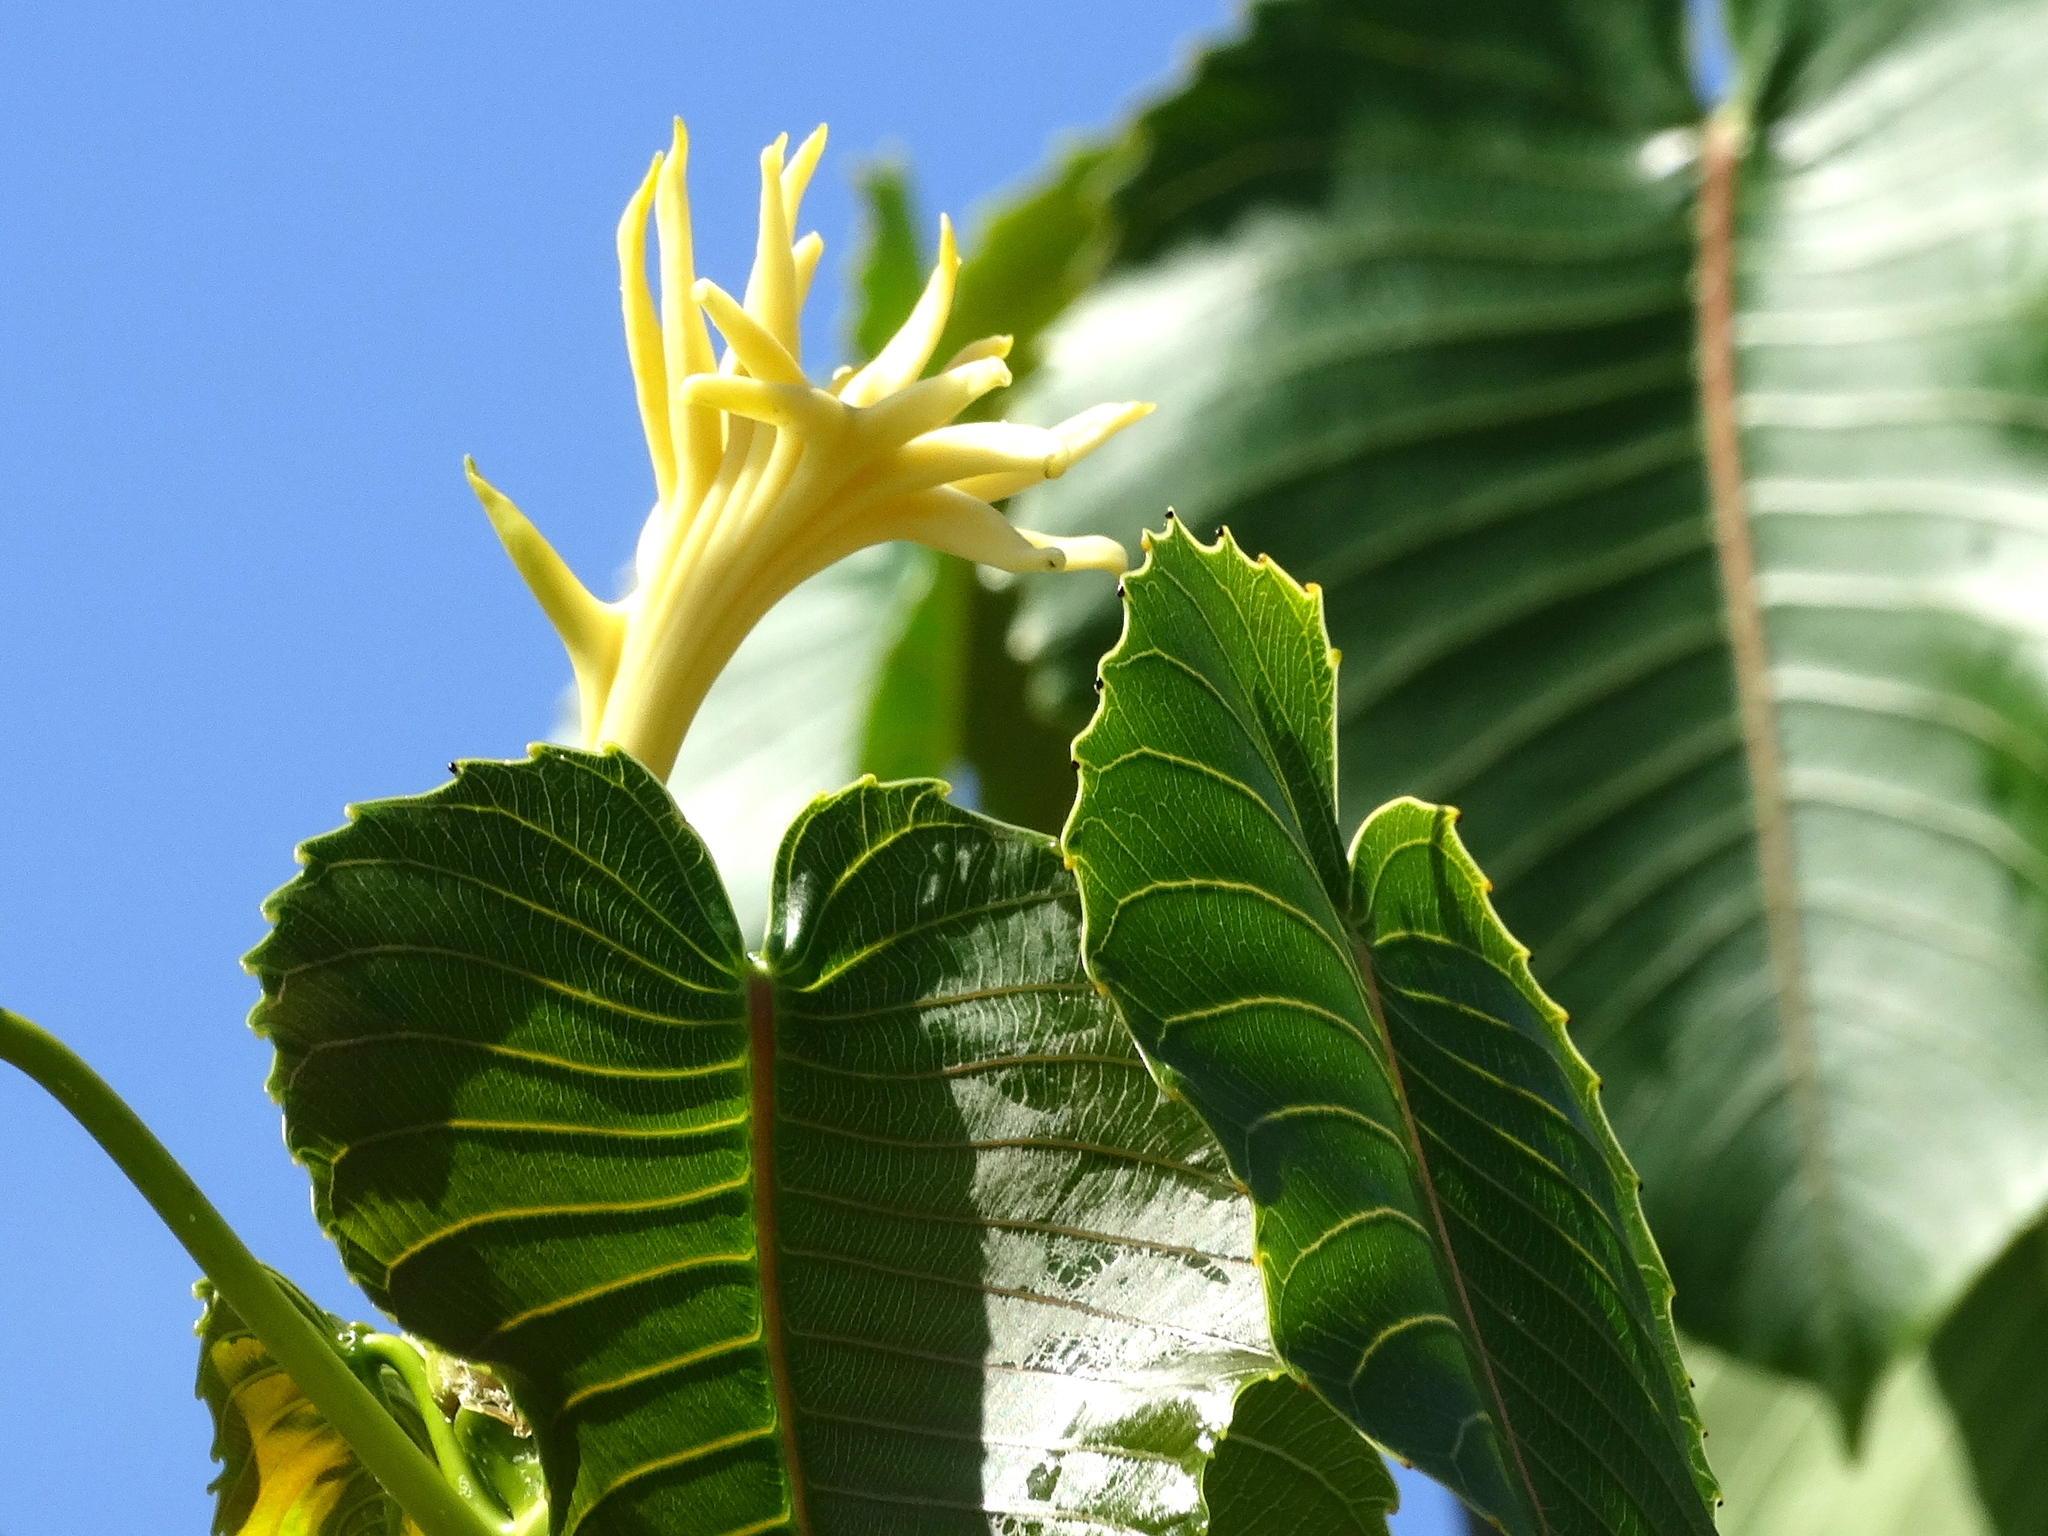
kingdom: Plantae
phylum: Tracheophyta
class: Magnoliopsida
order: Malpighiales
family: Euphorbiaceae
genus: Hura
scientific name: Hura polyandra
